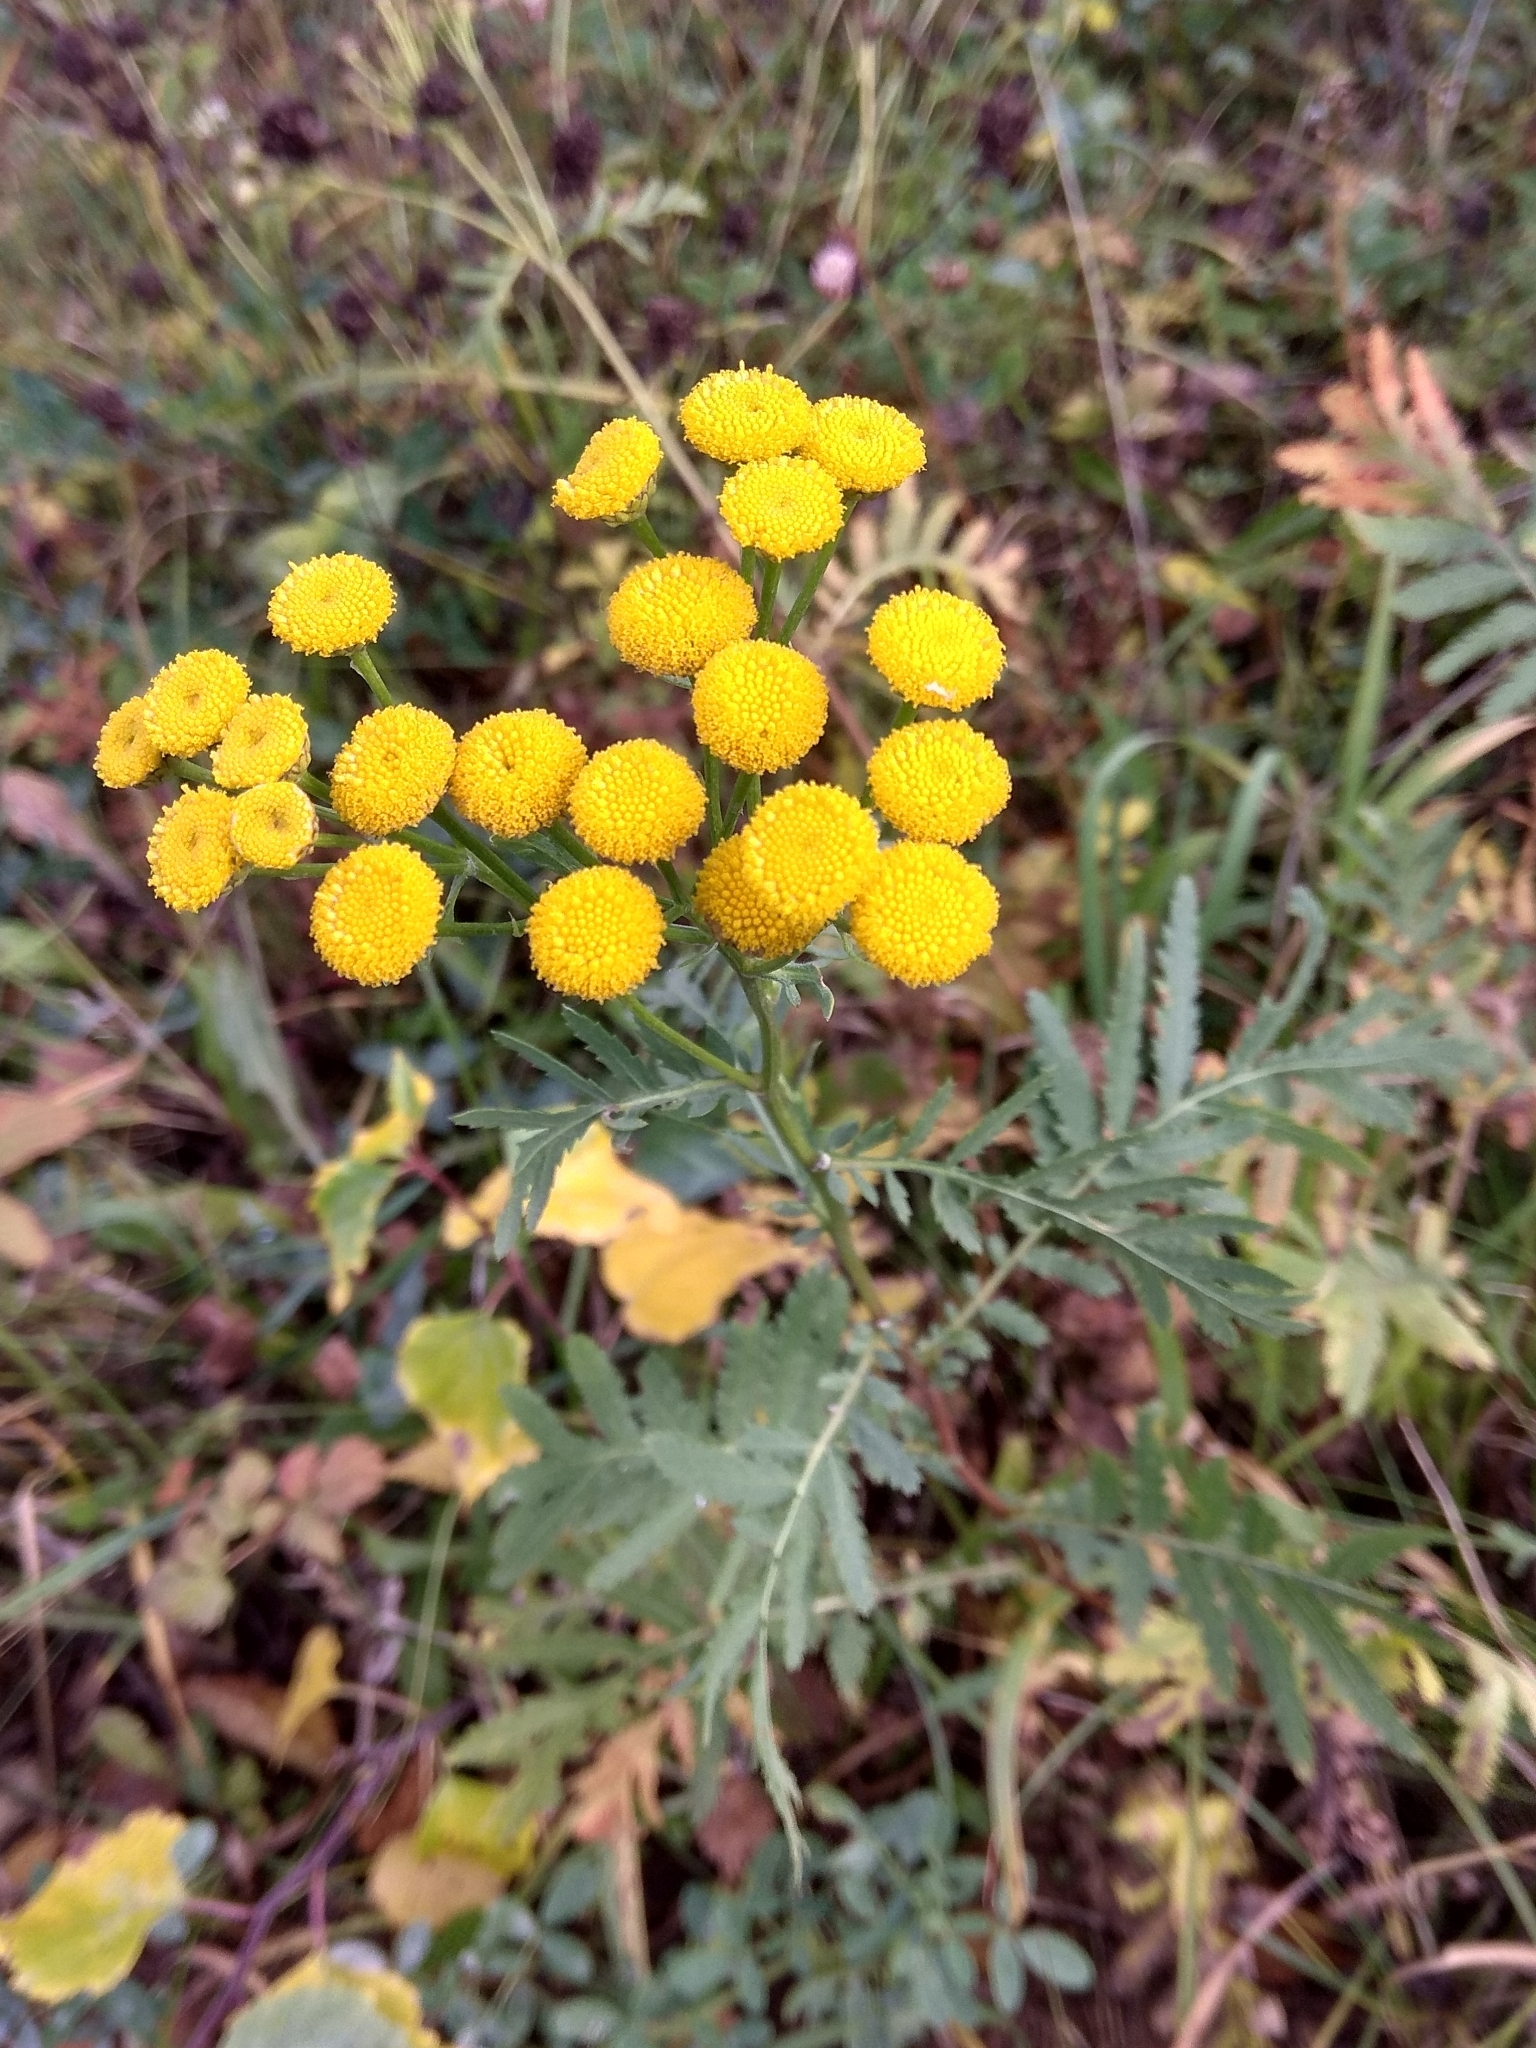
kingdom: Plantae
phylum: Tracheophyta
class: Magnoliopsida
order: Asterales
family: Asteraceae
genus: Tanacetum
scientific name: Tanacetum vulgare
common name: Common tansy
